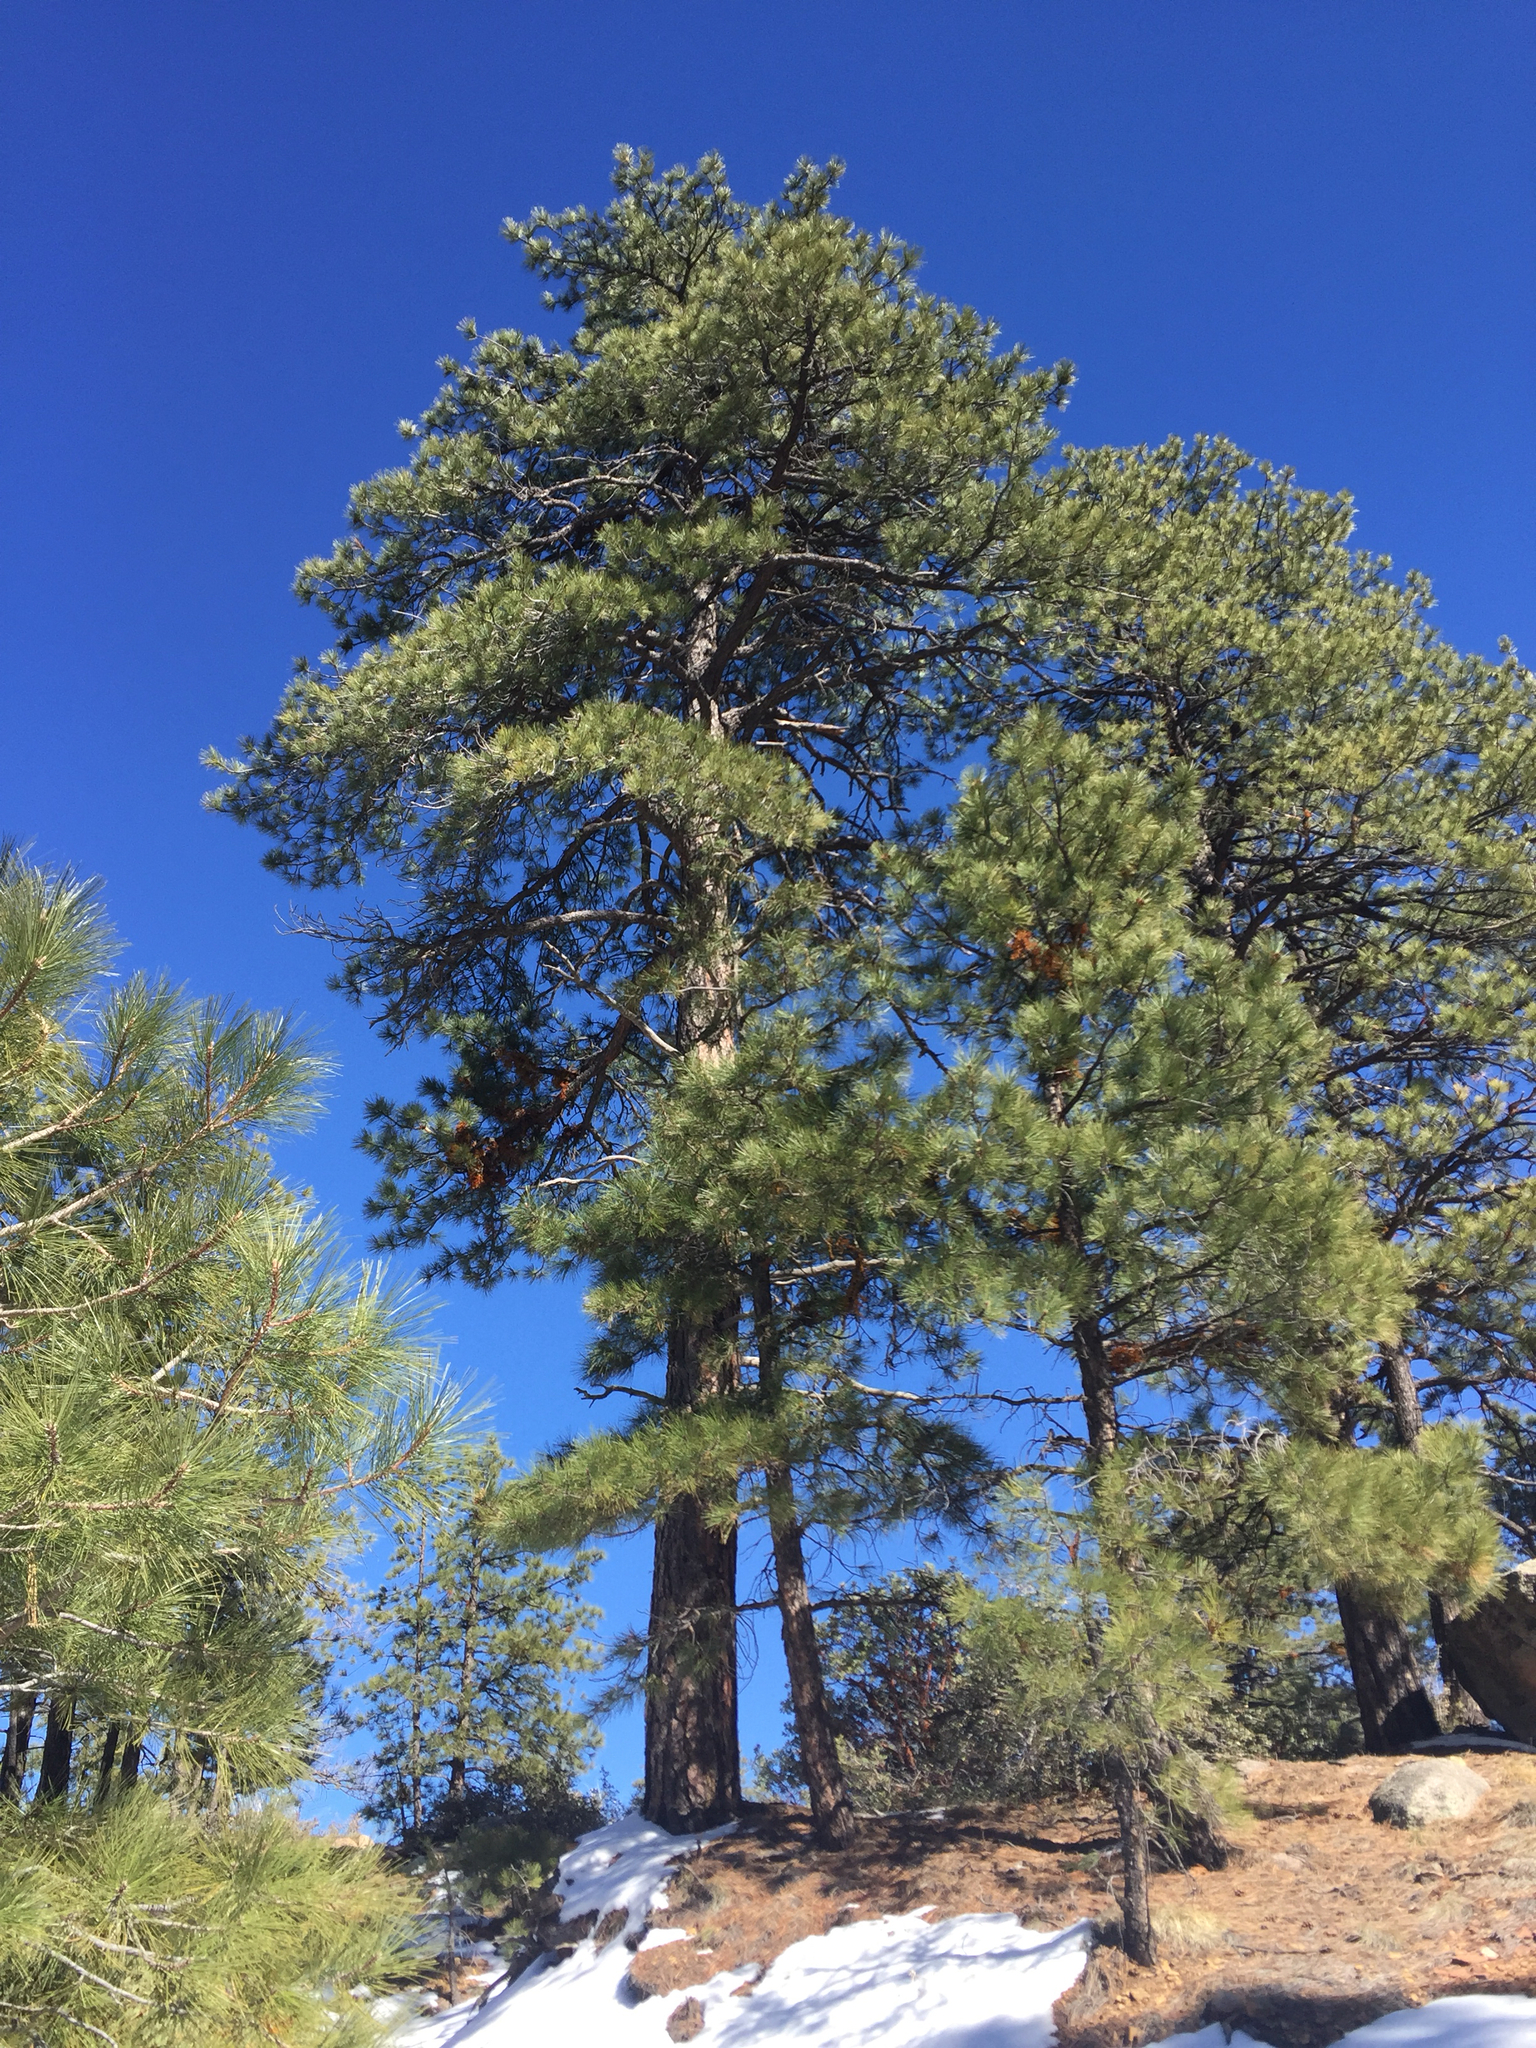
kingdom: Plantae
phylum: Tracheophyta
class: Pinopsida
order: Pinales
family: Pinaceae
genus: Pinus
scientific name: Pinus ponderosa
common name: Western yellow-pine
